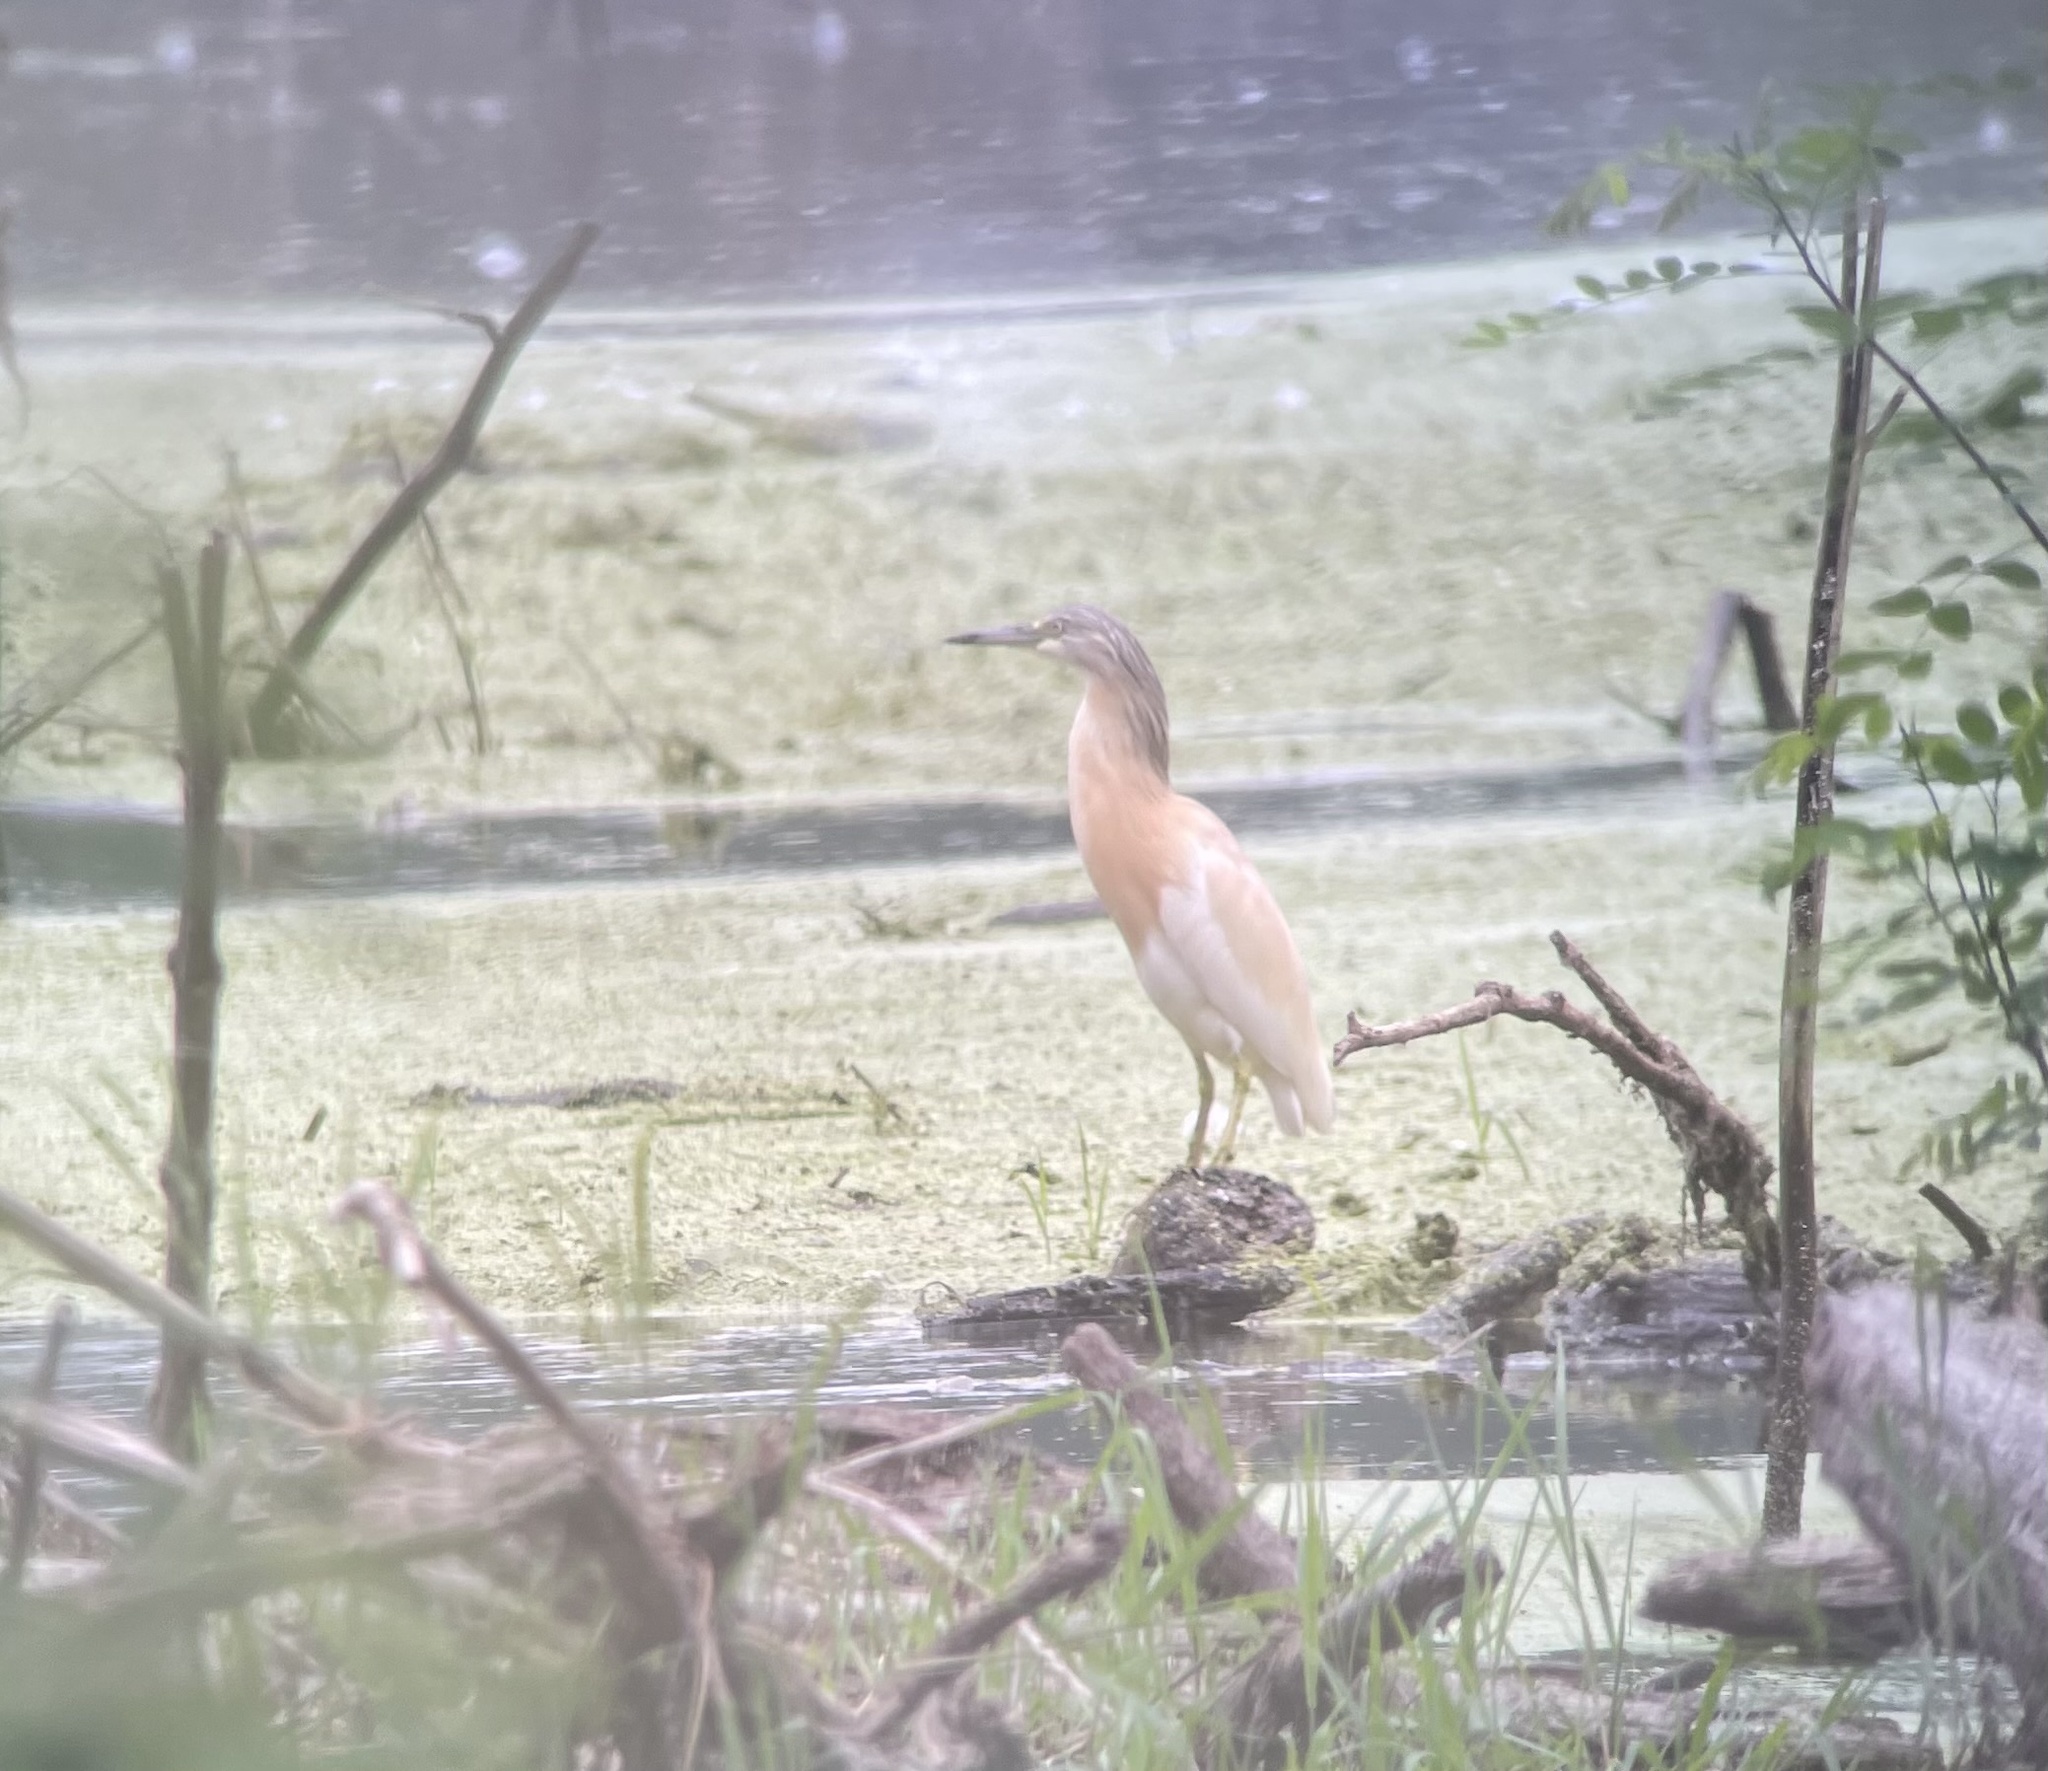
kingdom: Animalia
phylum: Chordata
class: Aves
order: Pelecaniformes
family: Ardeidae
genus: Ardeola
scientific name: Ardeola ralloides
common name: Squacco heron
